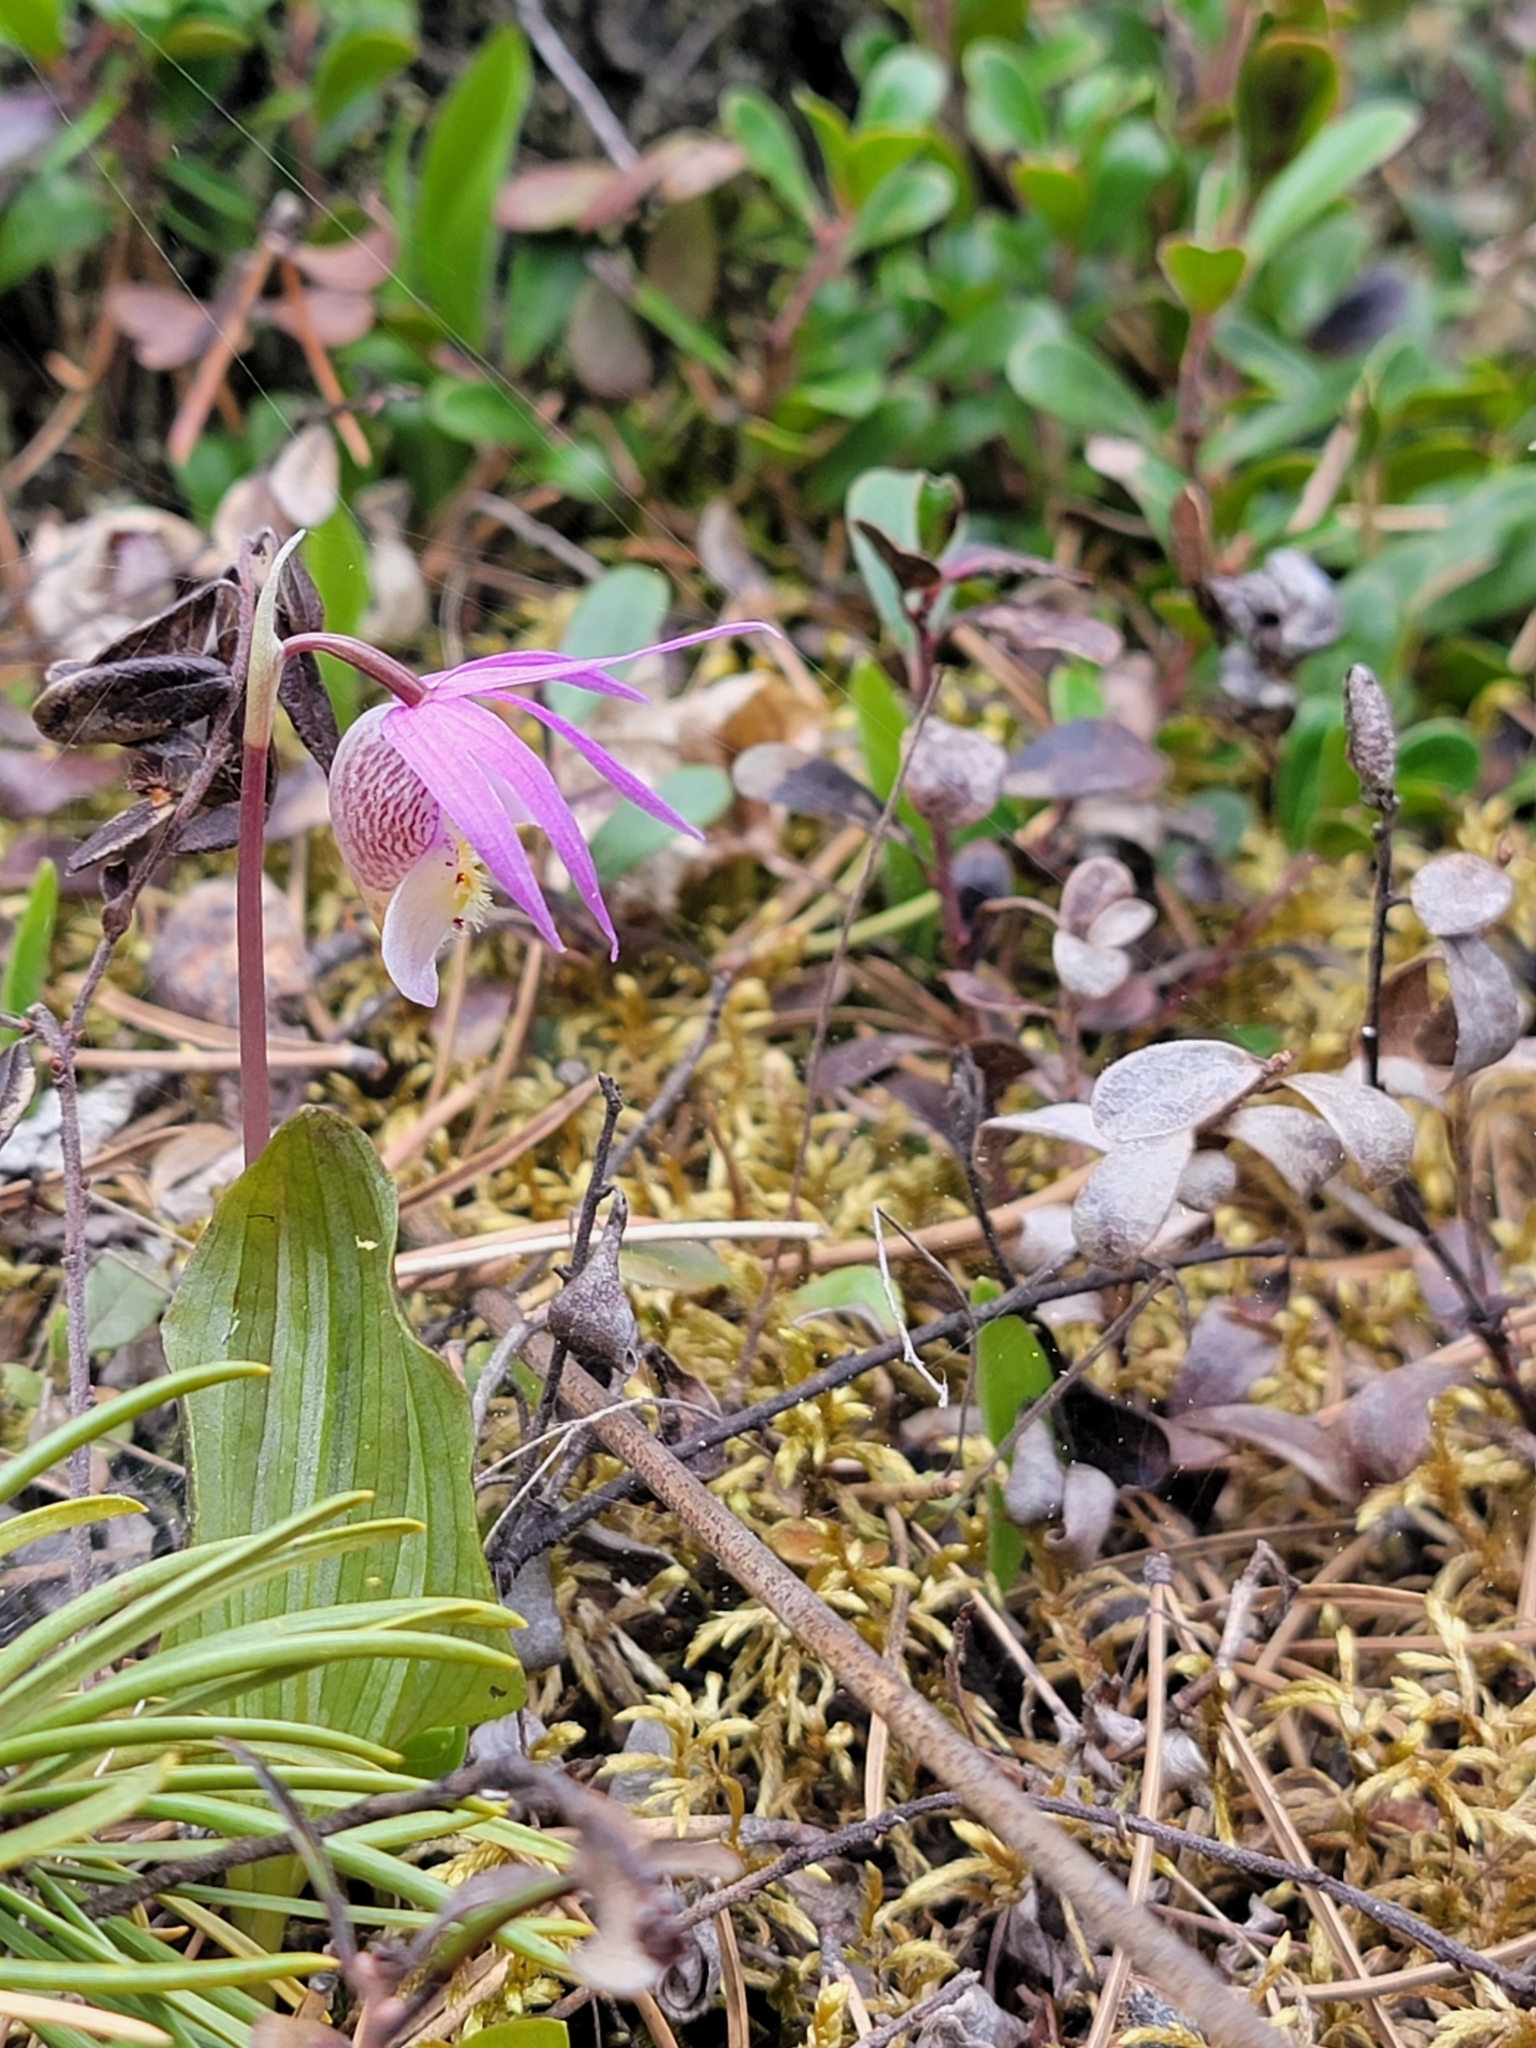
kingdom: Plantae
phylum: Tracheophyta
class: Liliopsida
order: Asparagales
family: Orchidaceae
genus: Calypso
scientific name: Calypso bulbosa
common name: Calypso
